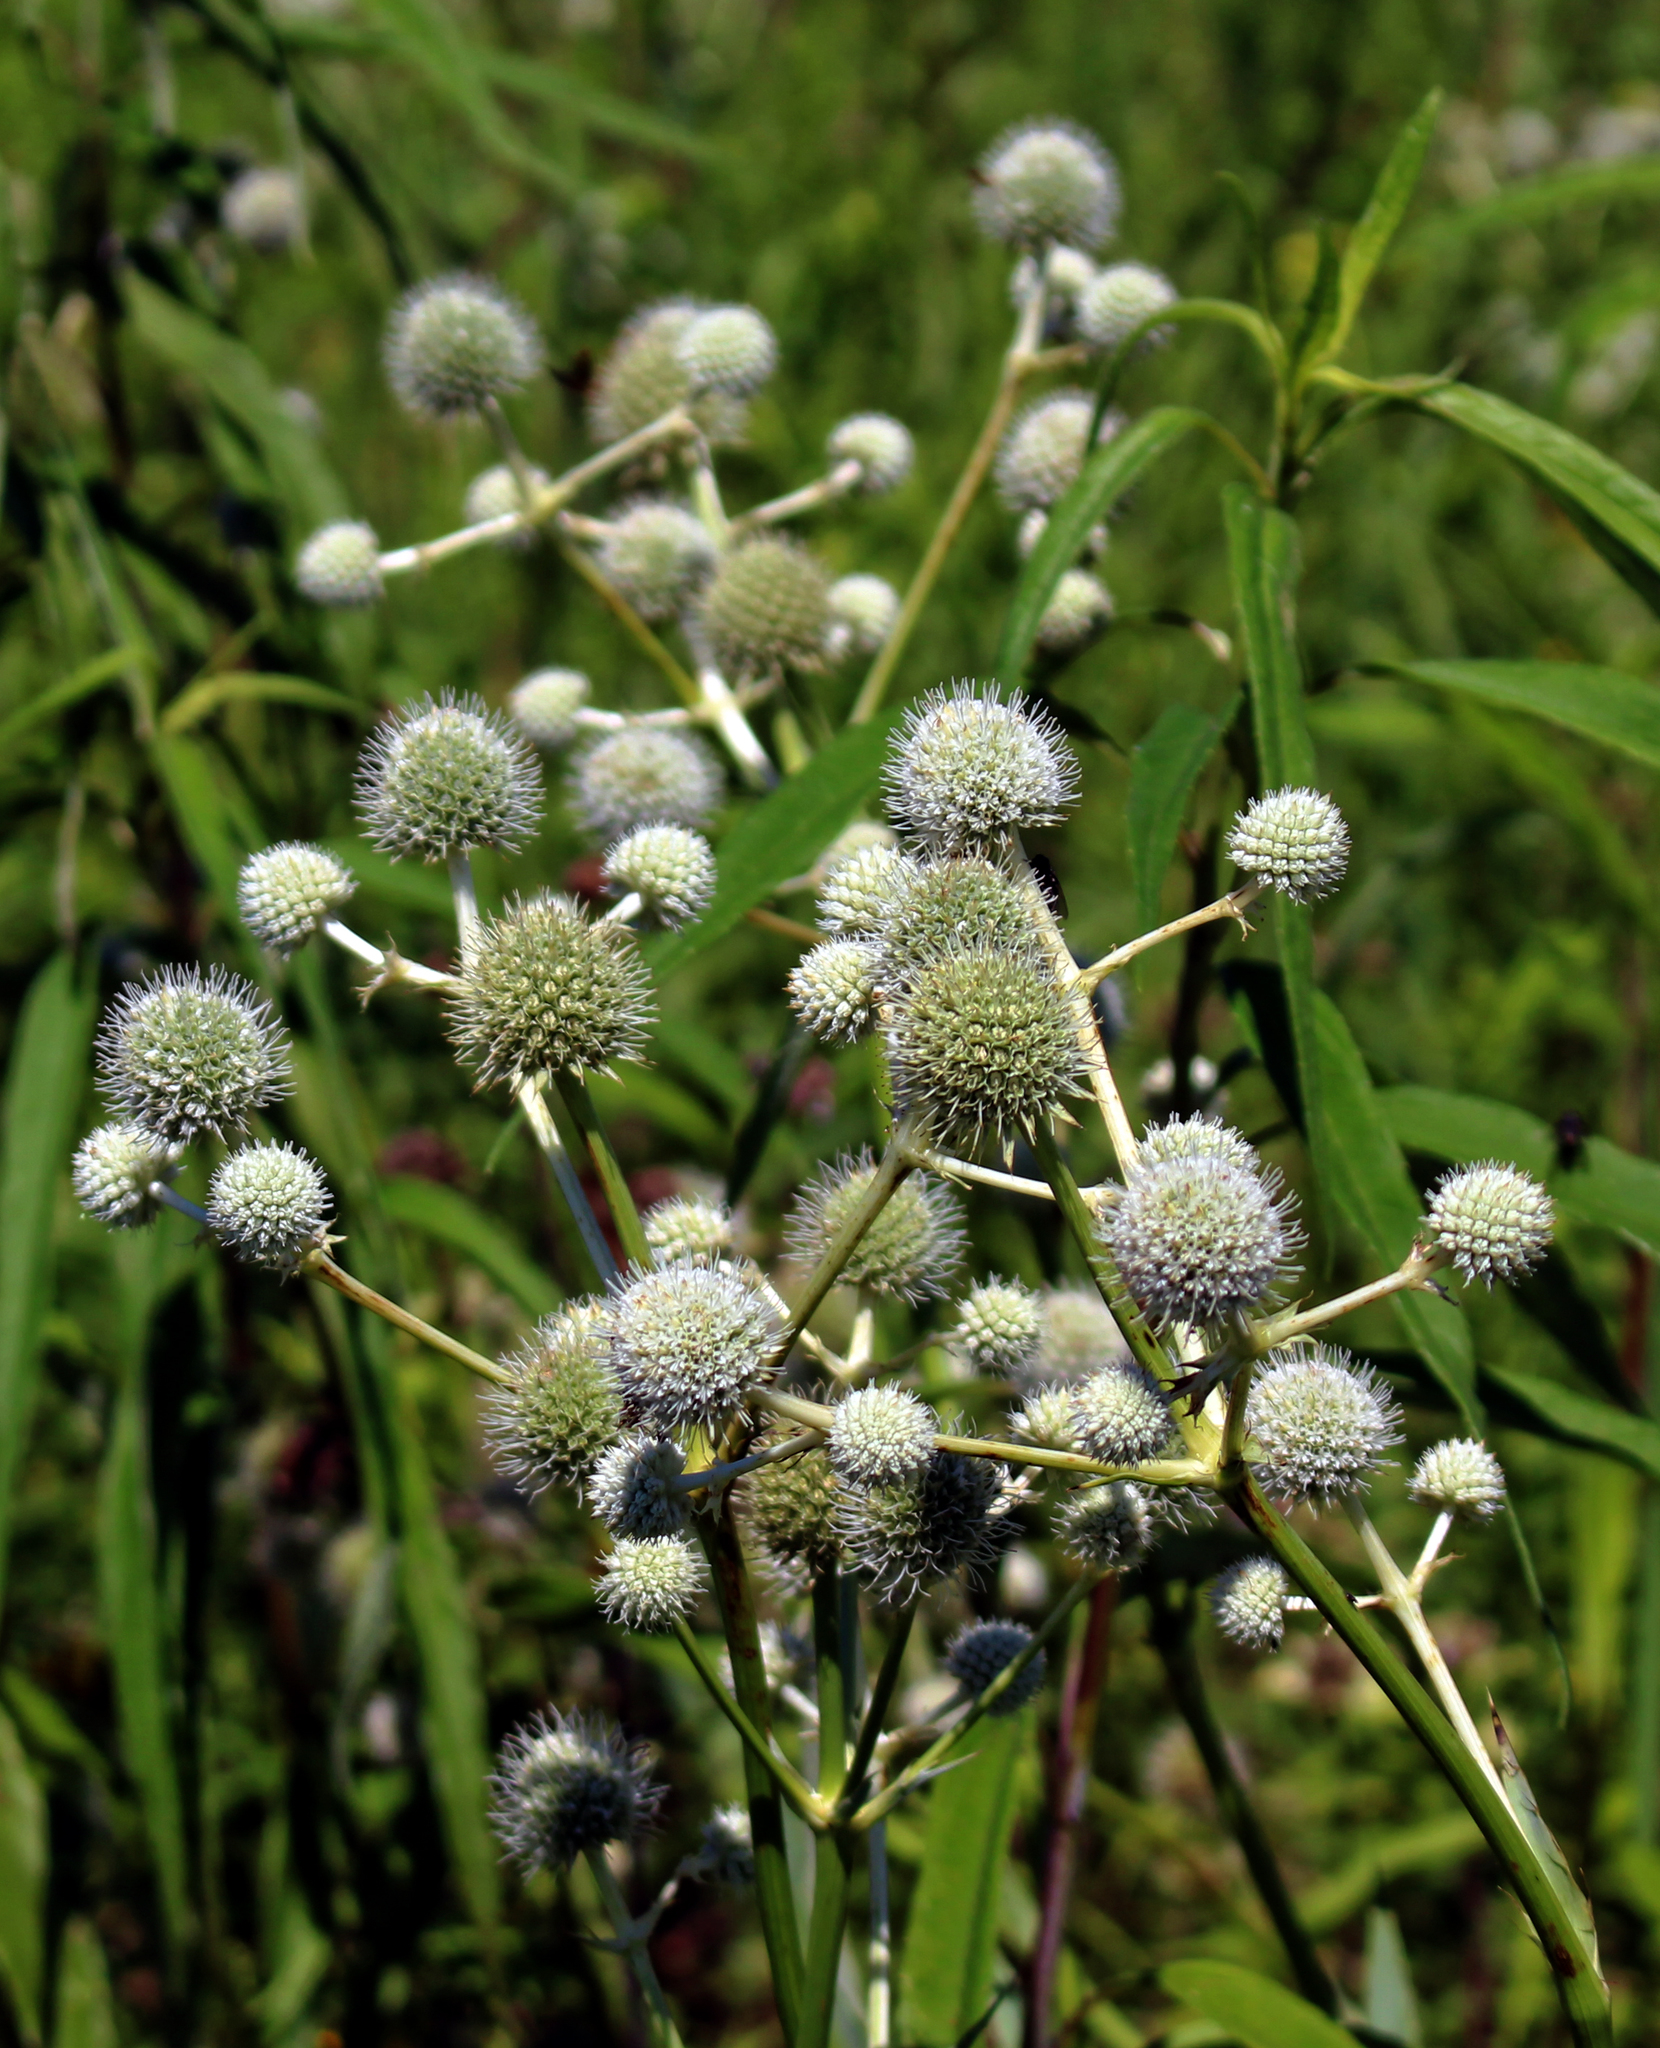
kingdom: Plantae
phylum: Tracheophyta
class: Magnoliopsida
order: Apiales
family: Apiaceae
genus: Eryngium
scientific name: Eryngium yuccifolium
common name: Button eryngo
